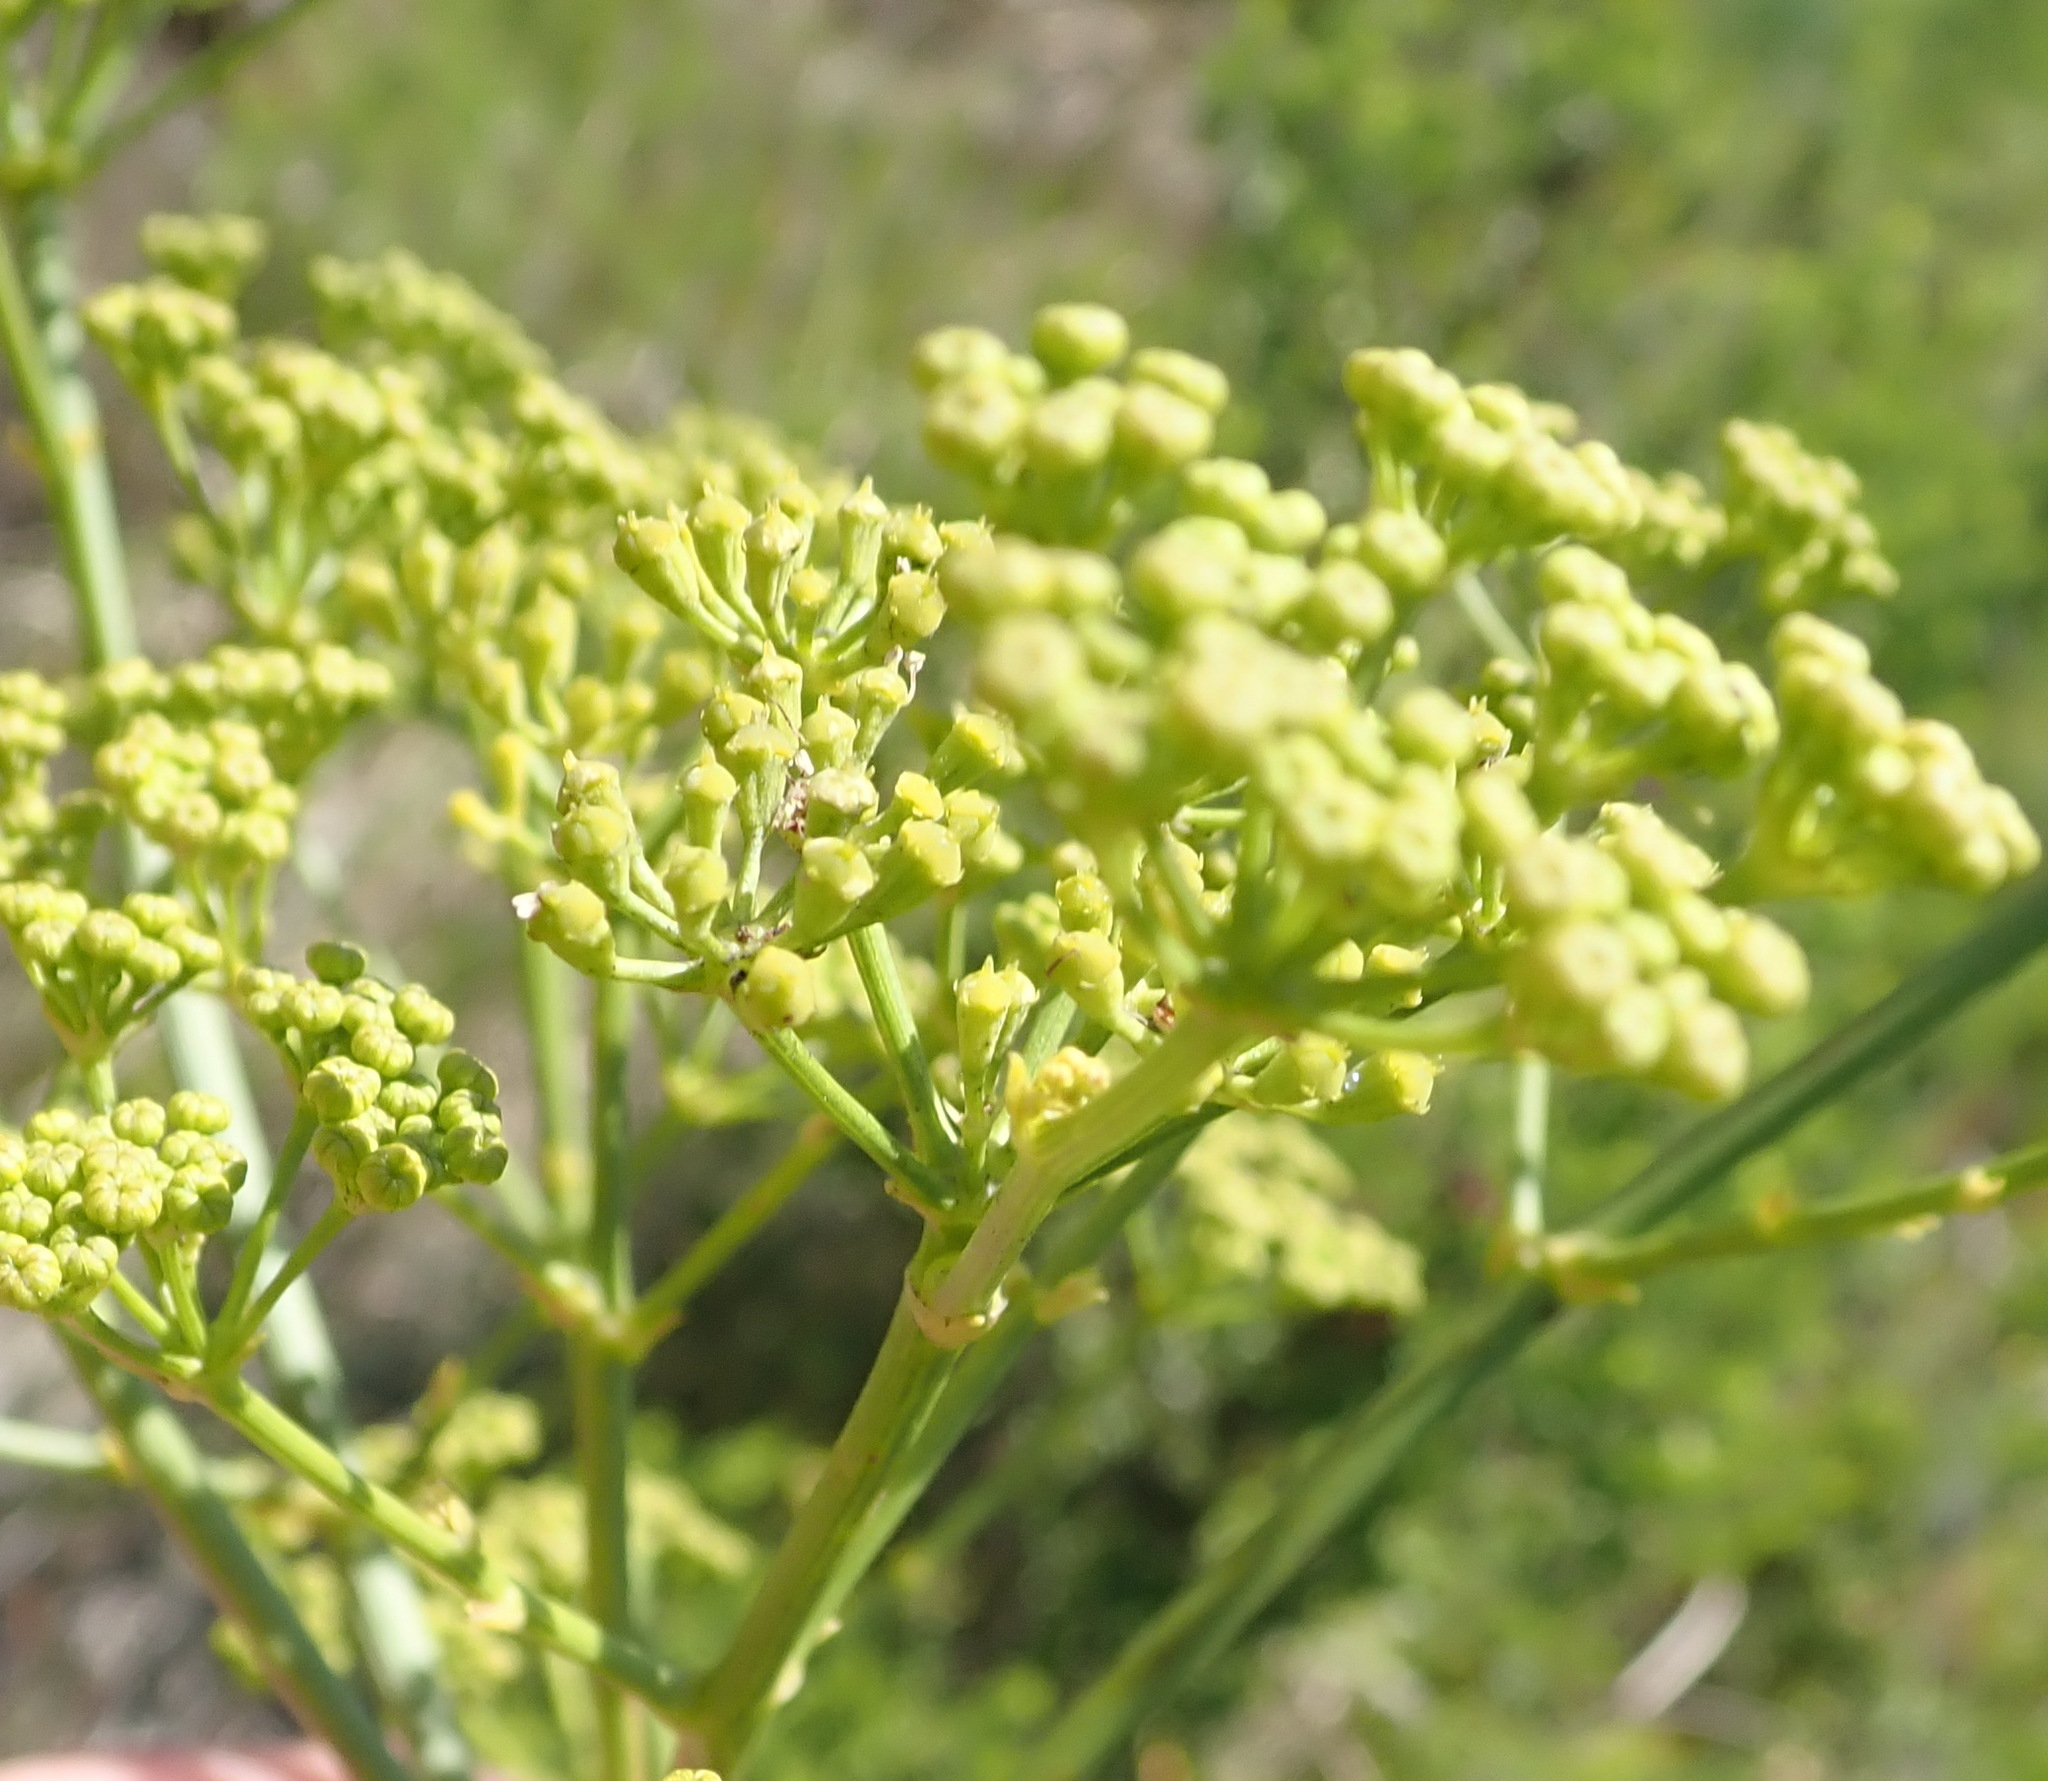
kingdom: Plantae
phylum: Tracheophyta
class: Magnoliopsida
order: Apiales
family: Apiaceae
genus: Anginon
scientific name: Anginon difforme
